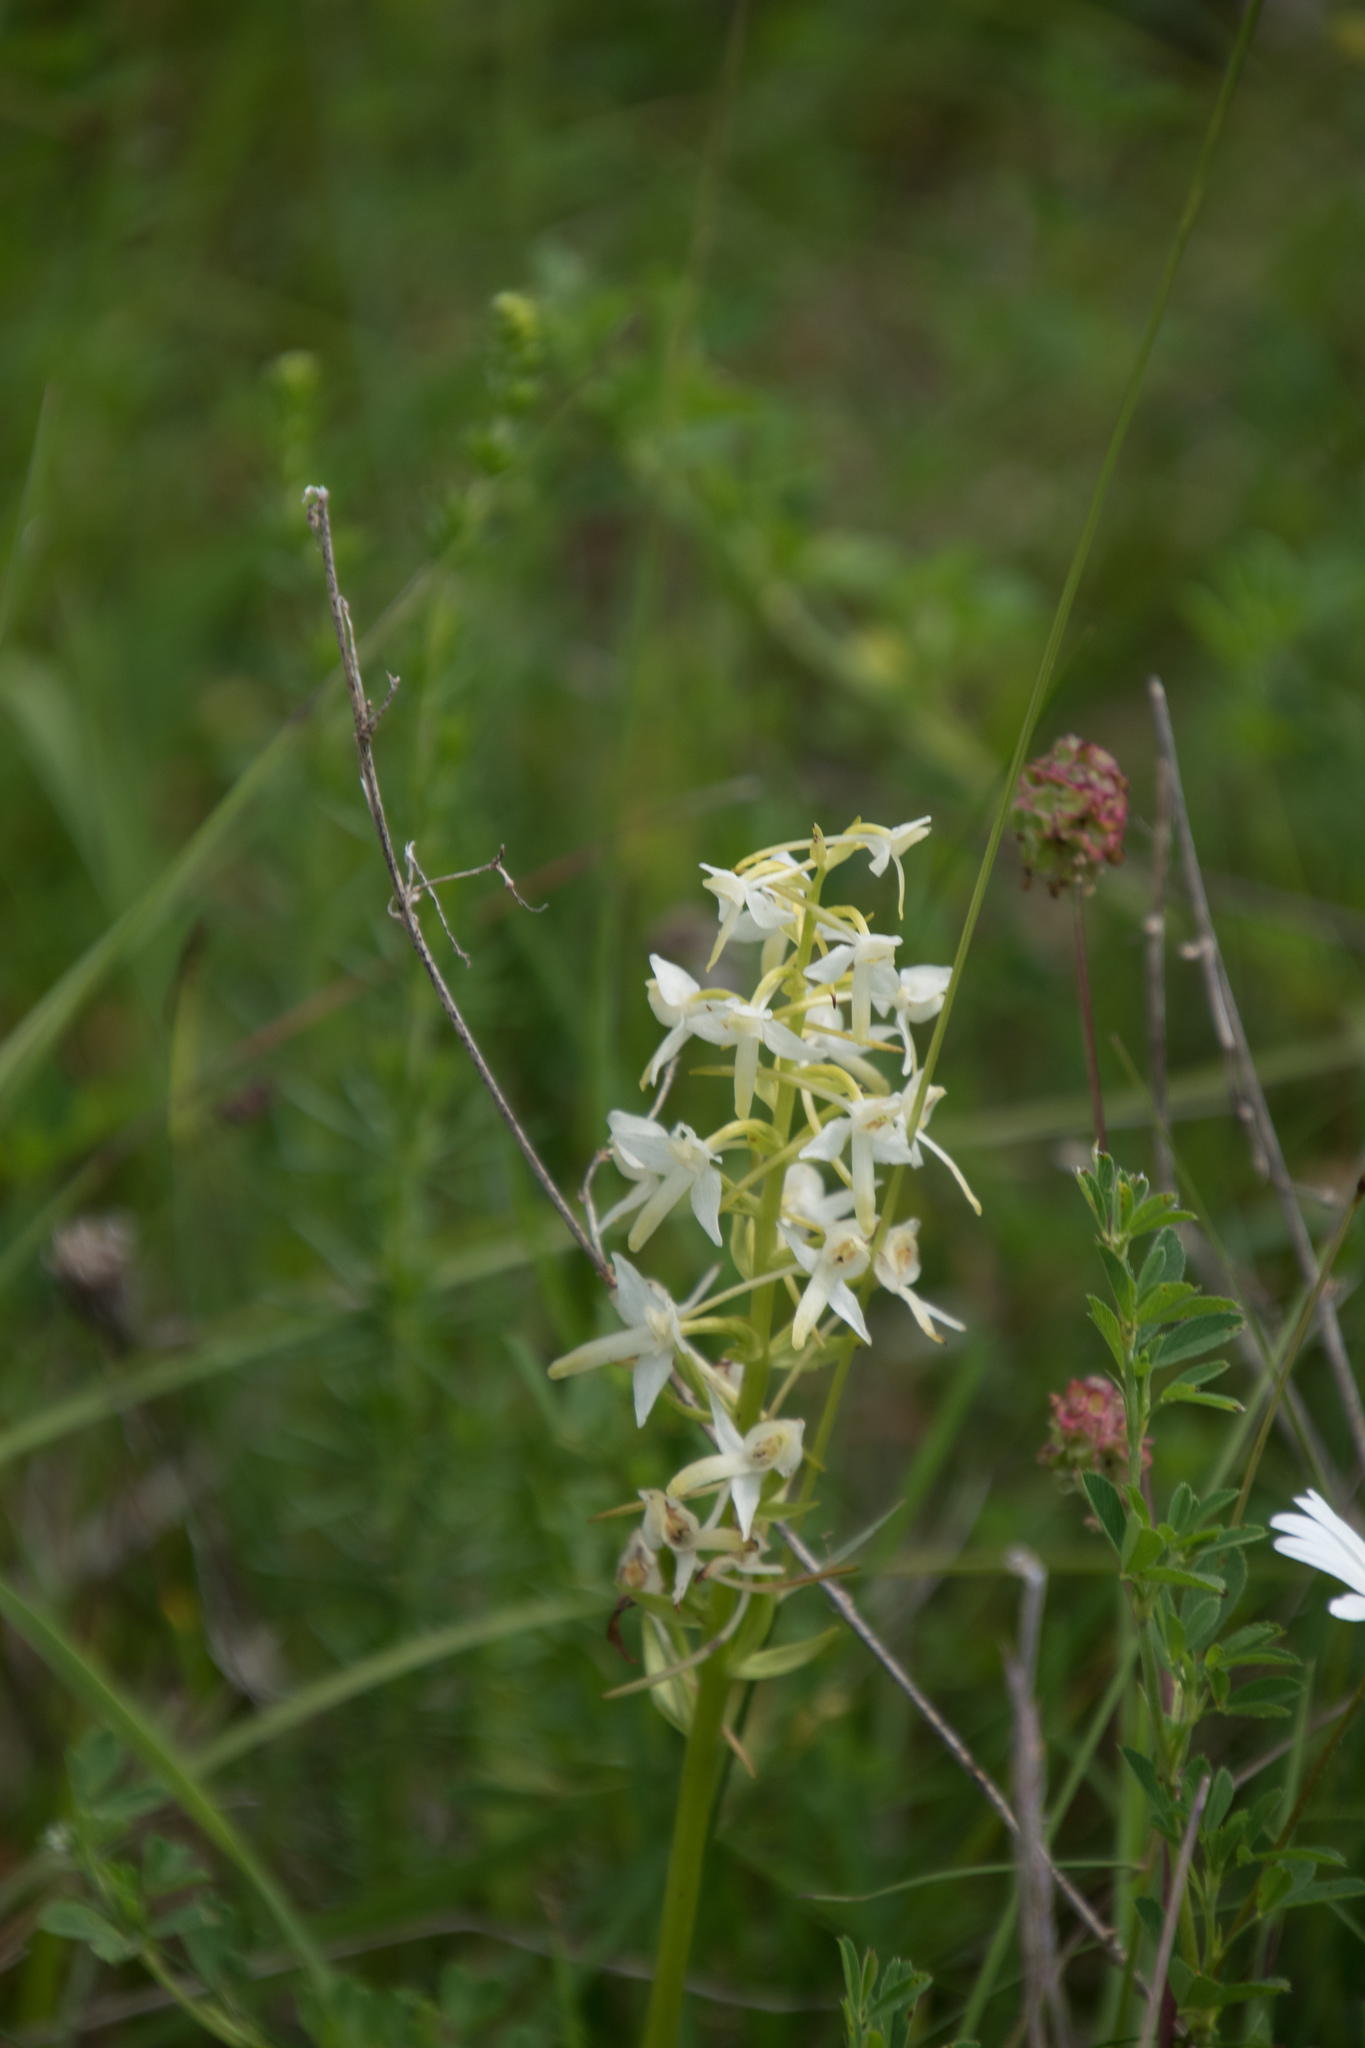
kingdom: Plantae
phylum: Tracheophyta
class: Liliopsida
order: Asparagales
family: Orchidaceae
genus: Platanthera
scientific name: Platanthera bifolia
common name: Lesser butterfly-orchid
